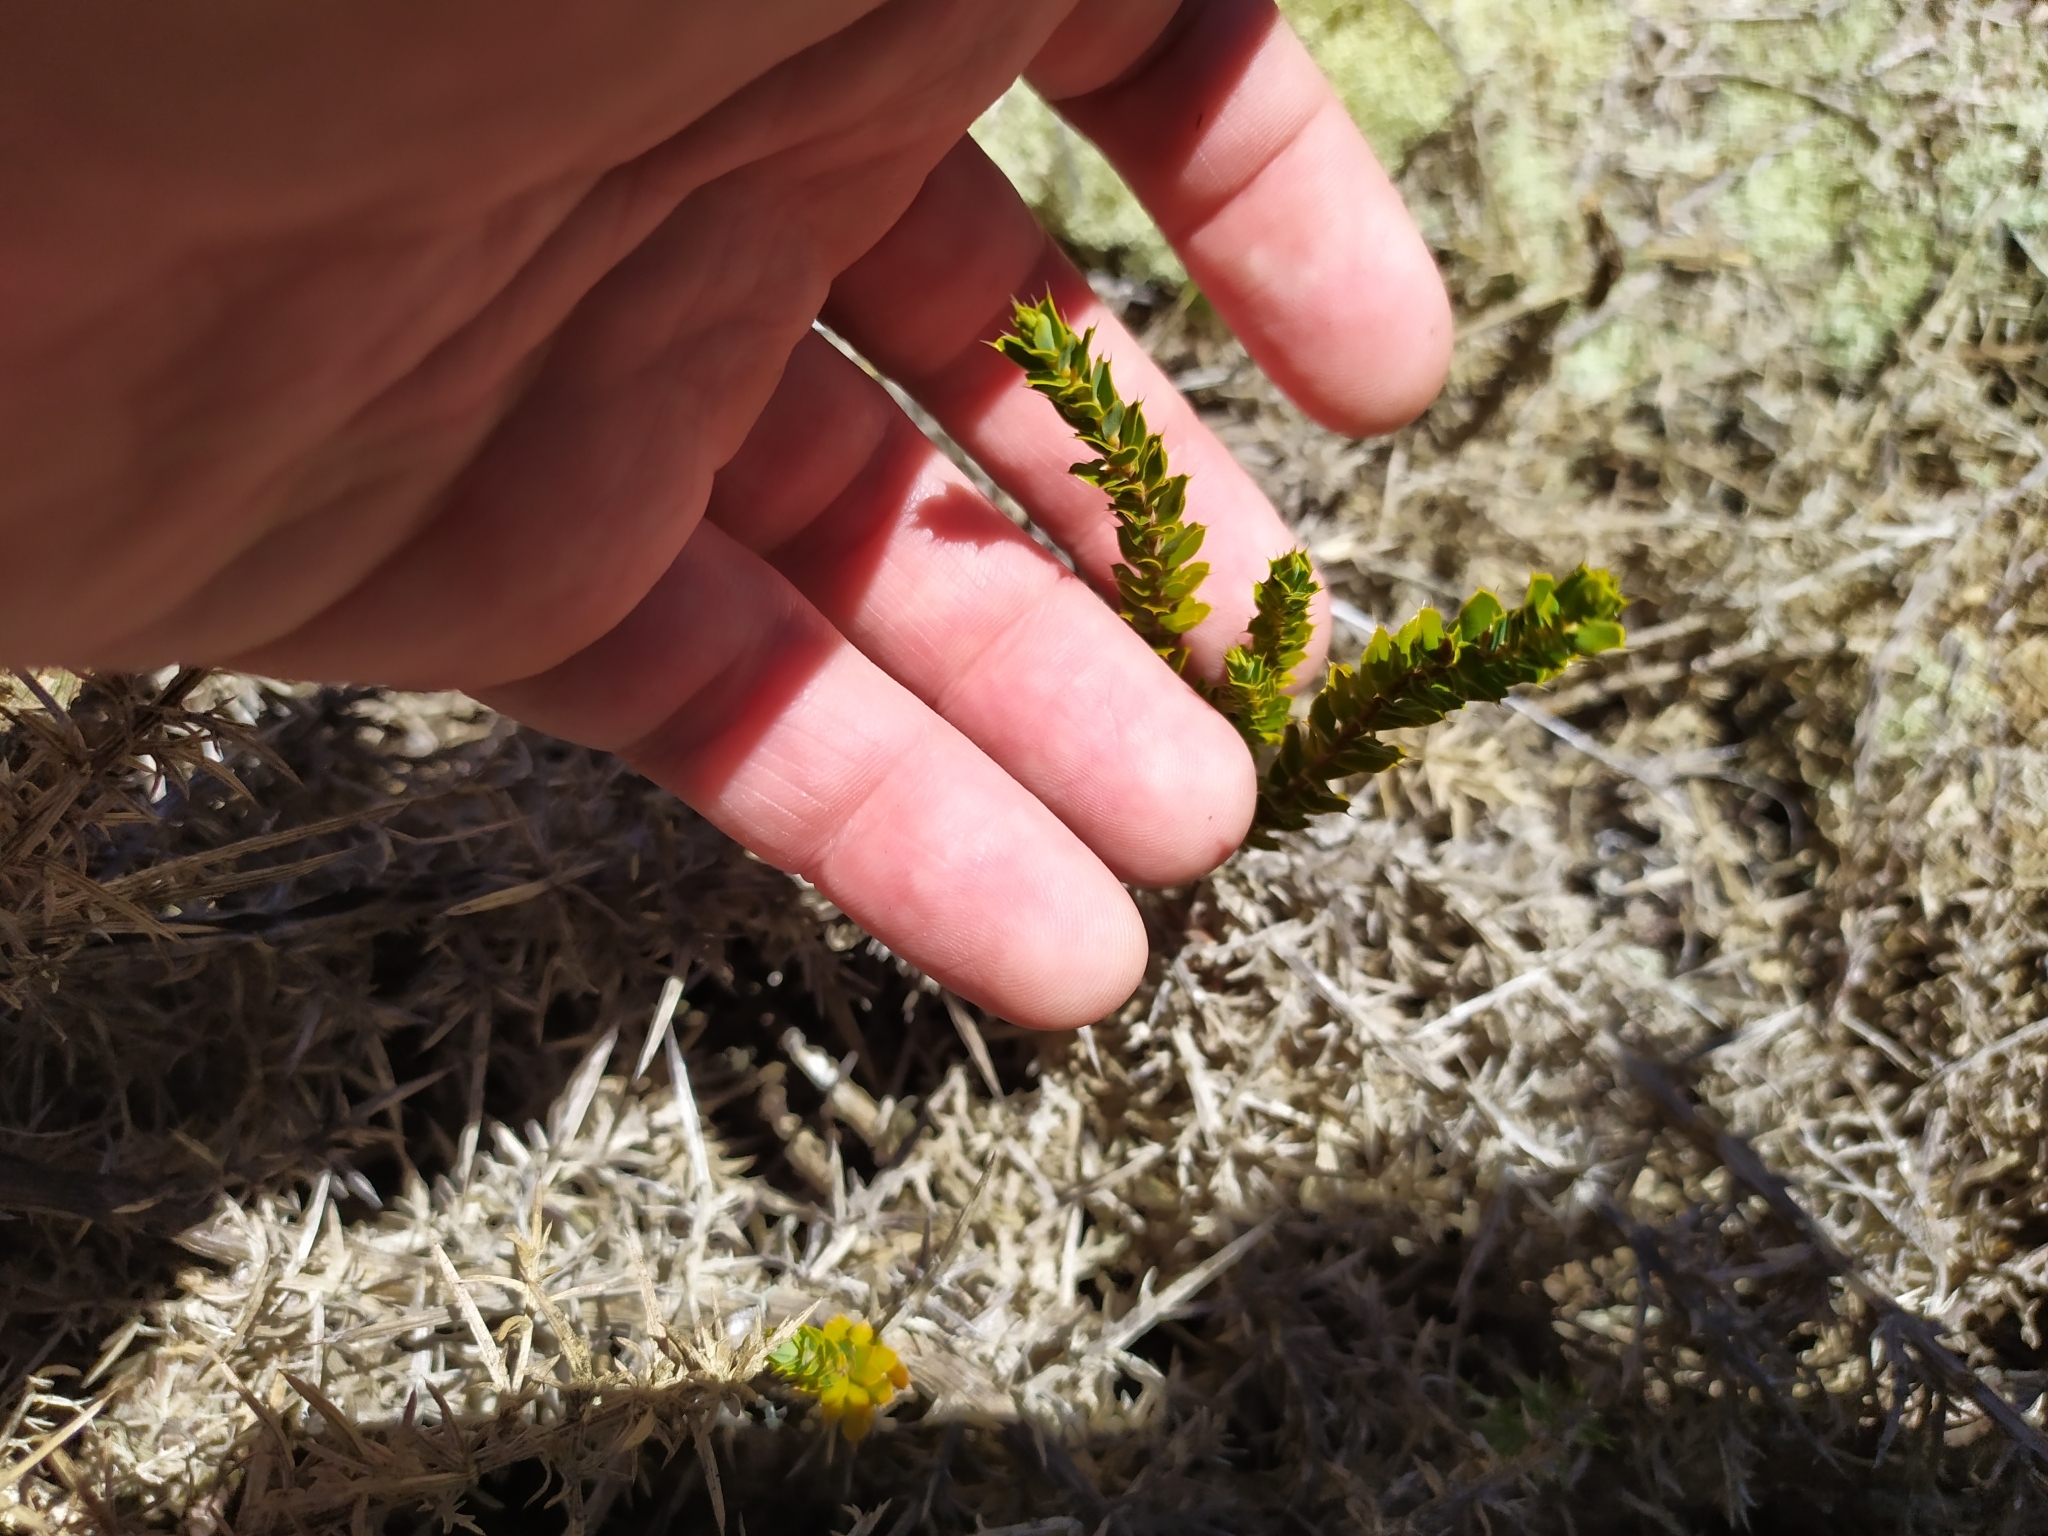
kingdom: Plantae
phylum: Tracheophyta
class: Magnoliopsida
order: Ericales
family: Ericaceae
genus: Styphelia
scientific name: Styphelia nesophila
